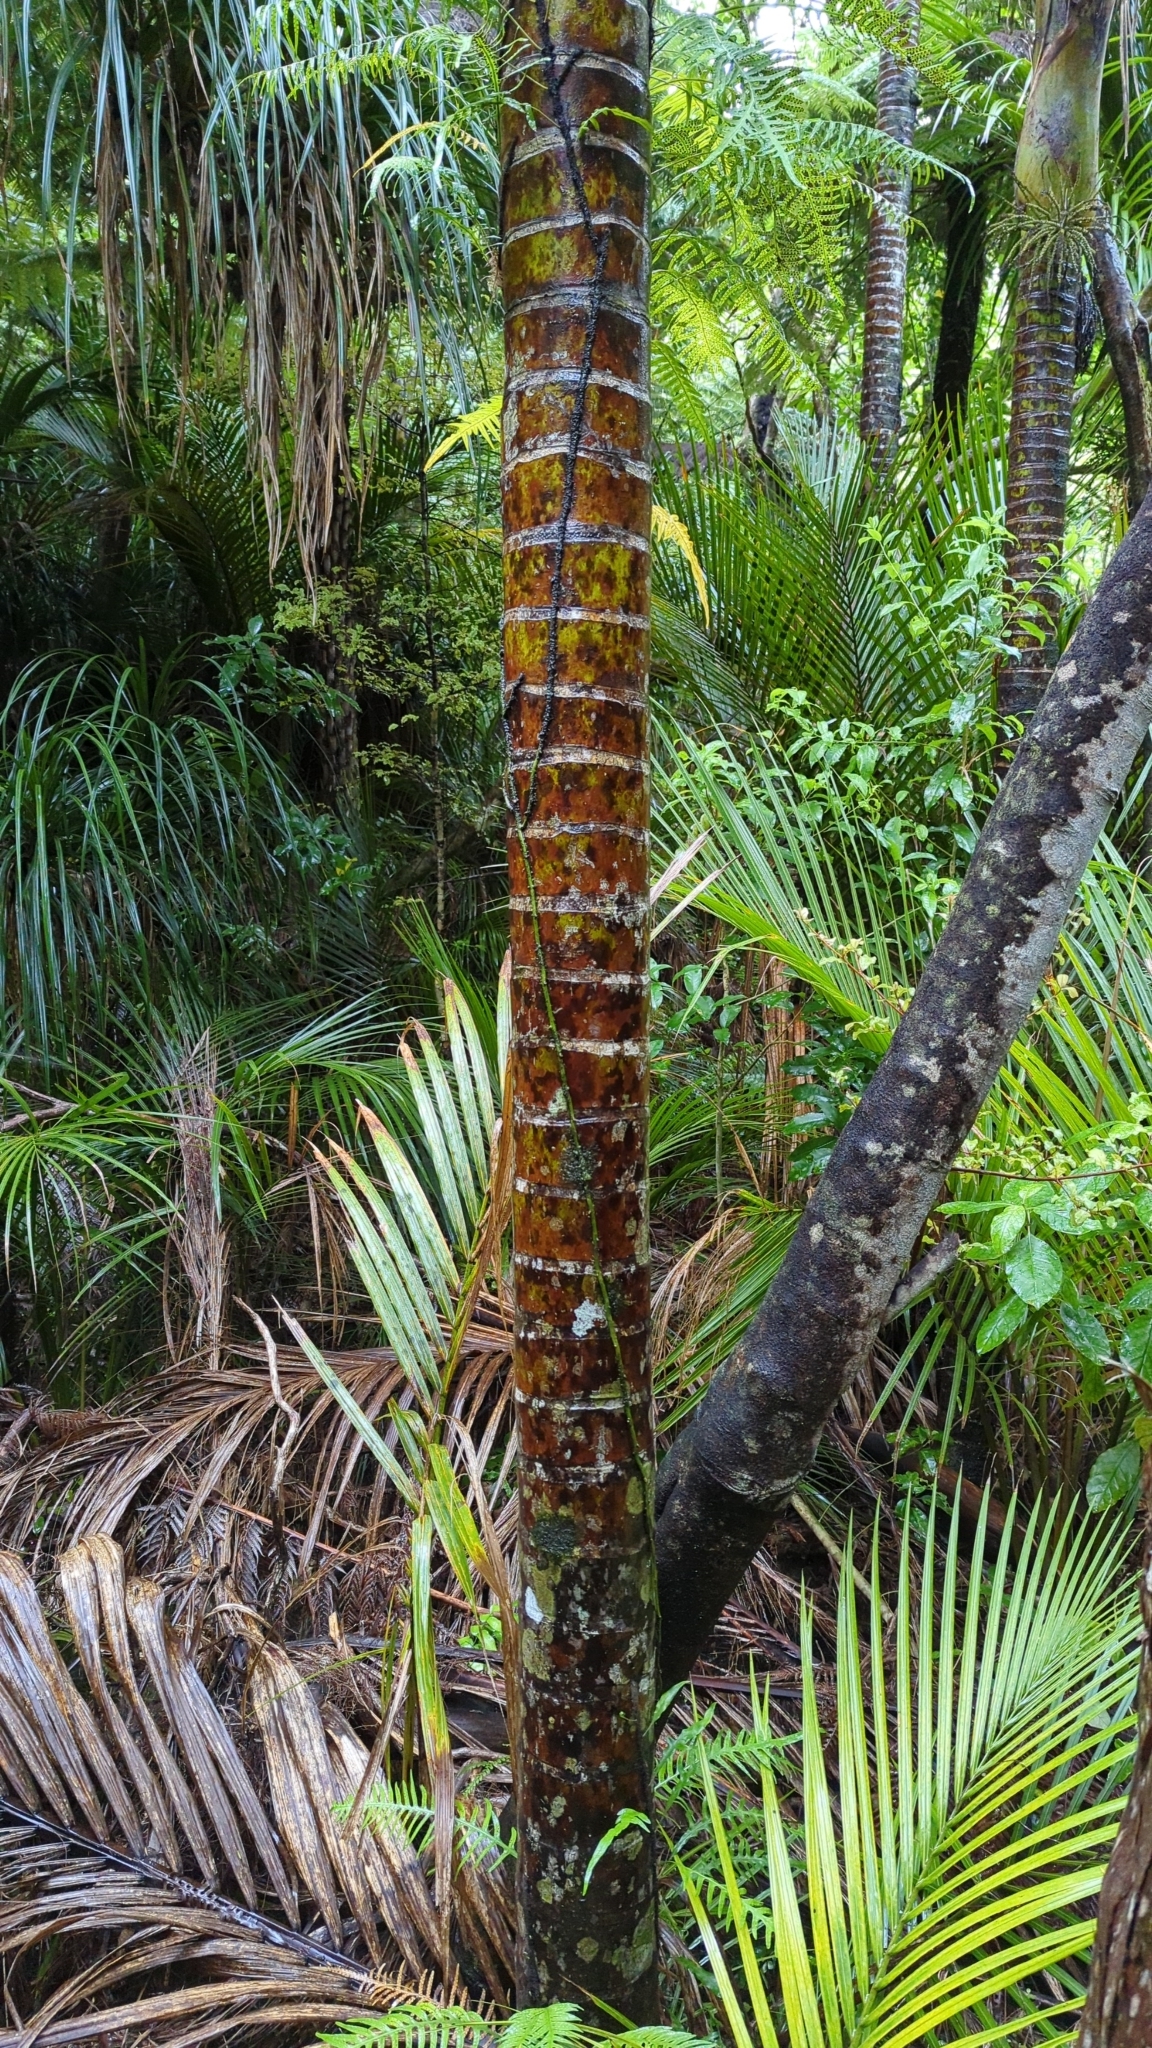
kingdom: Plantae
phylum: Tracheophyta
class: Liliopsida
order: Arecales
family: Arecaceae
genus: Rhopalostylis
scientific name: Rhopalostylis sapida
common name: Feather-duster palm
